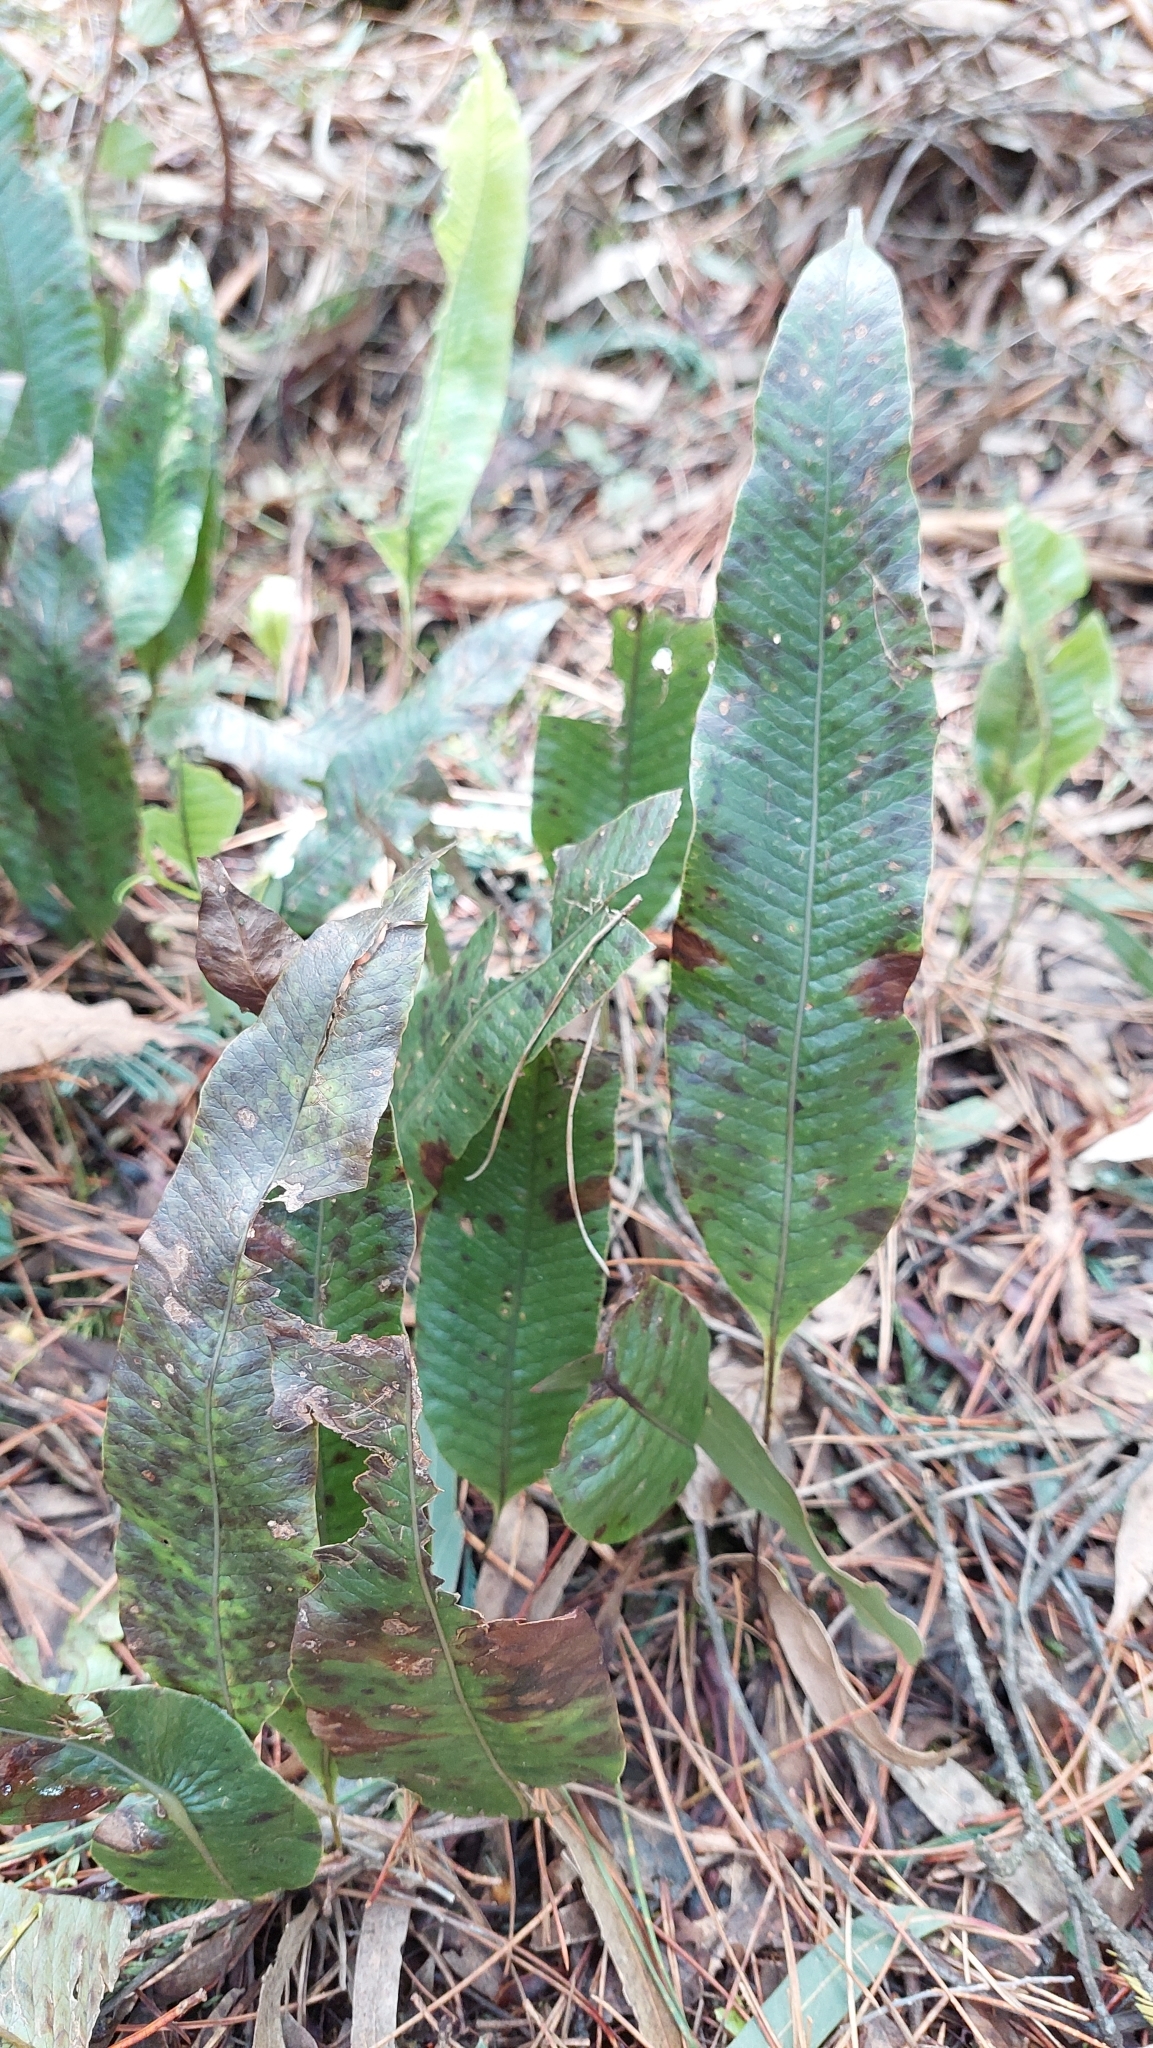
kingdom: Plantae
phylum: Tracheophyta
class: Polypodiopsida
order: Polypodiales
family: Polypodiaceae
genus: Serpocaulon
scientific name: Serpocaulon levigatum
